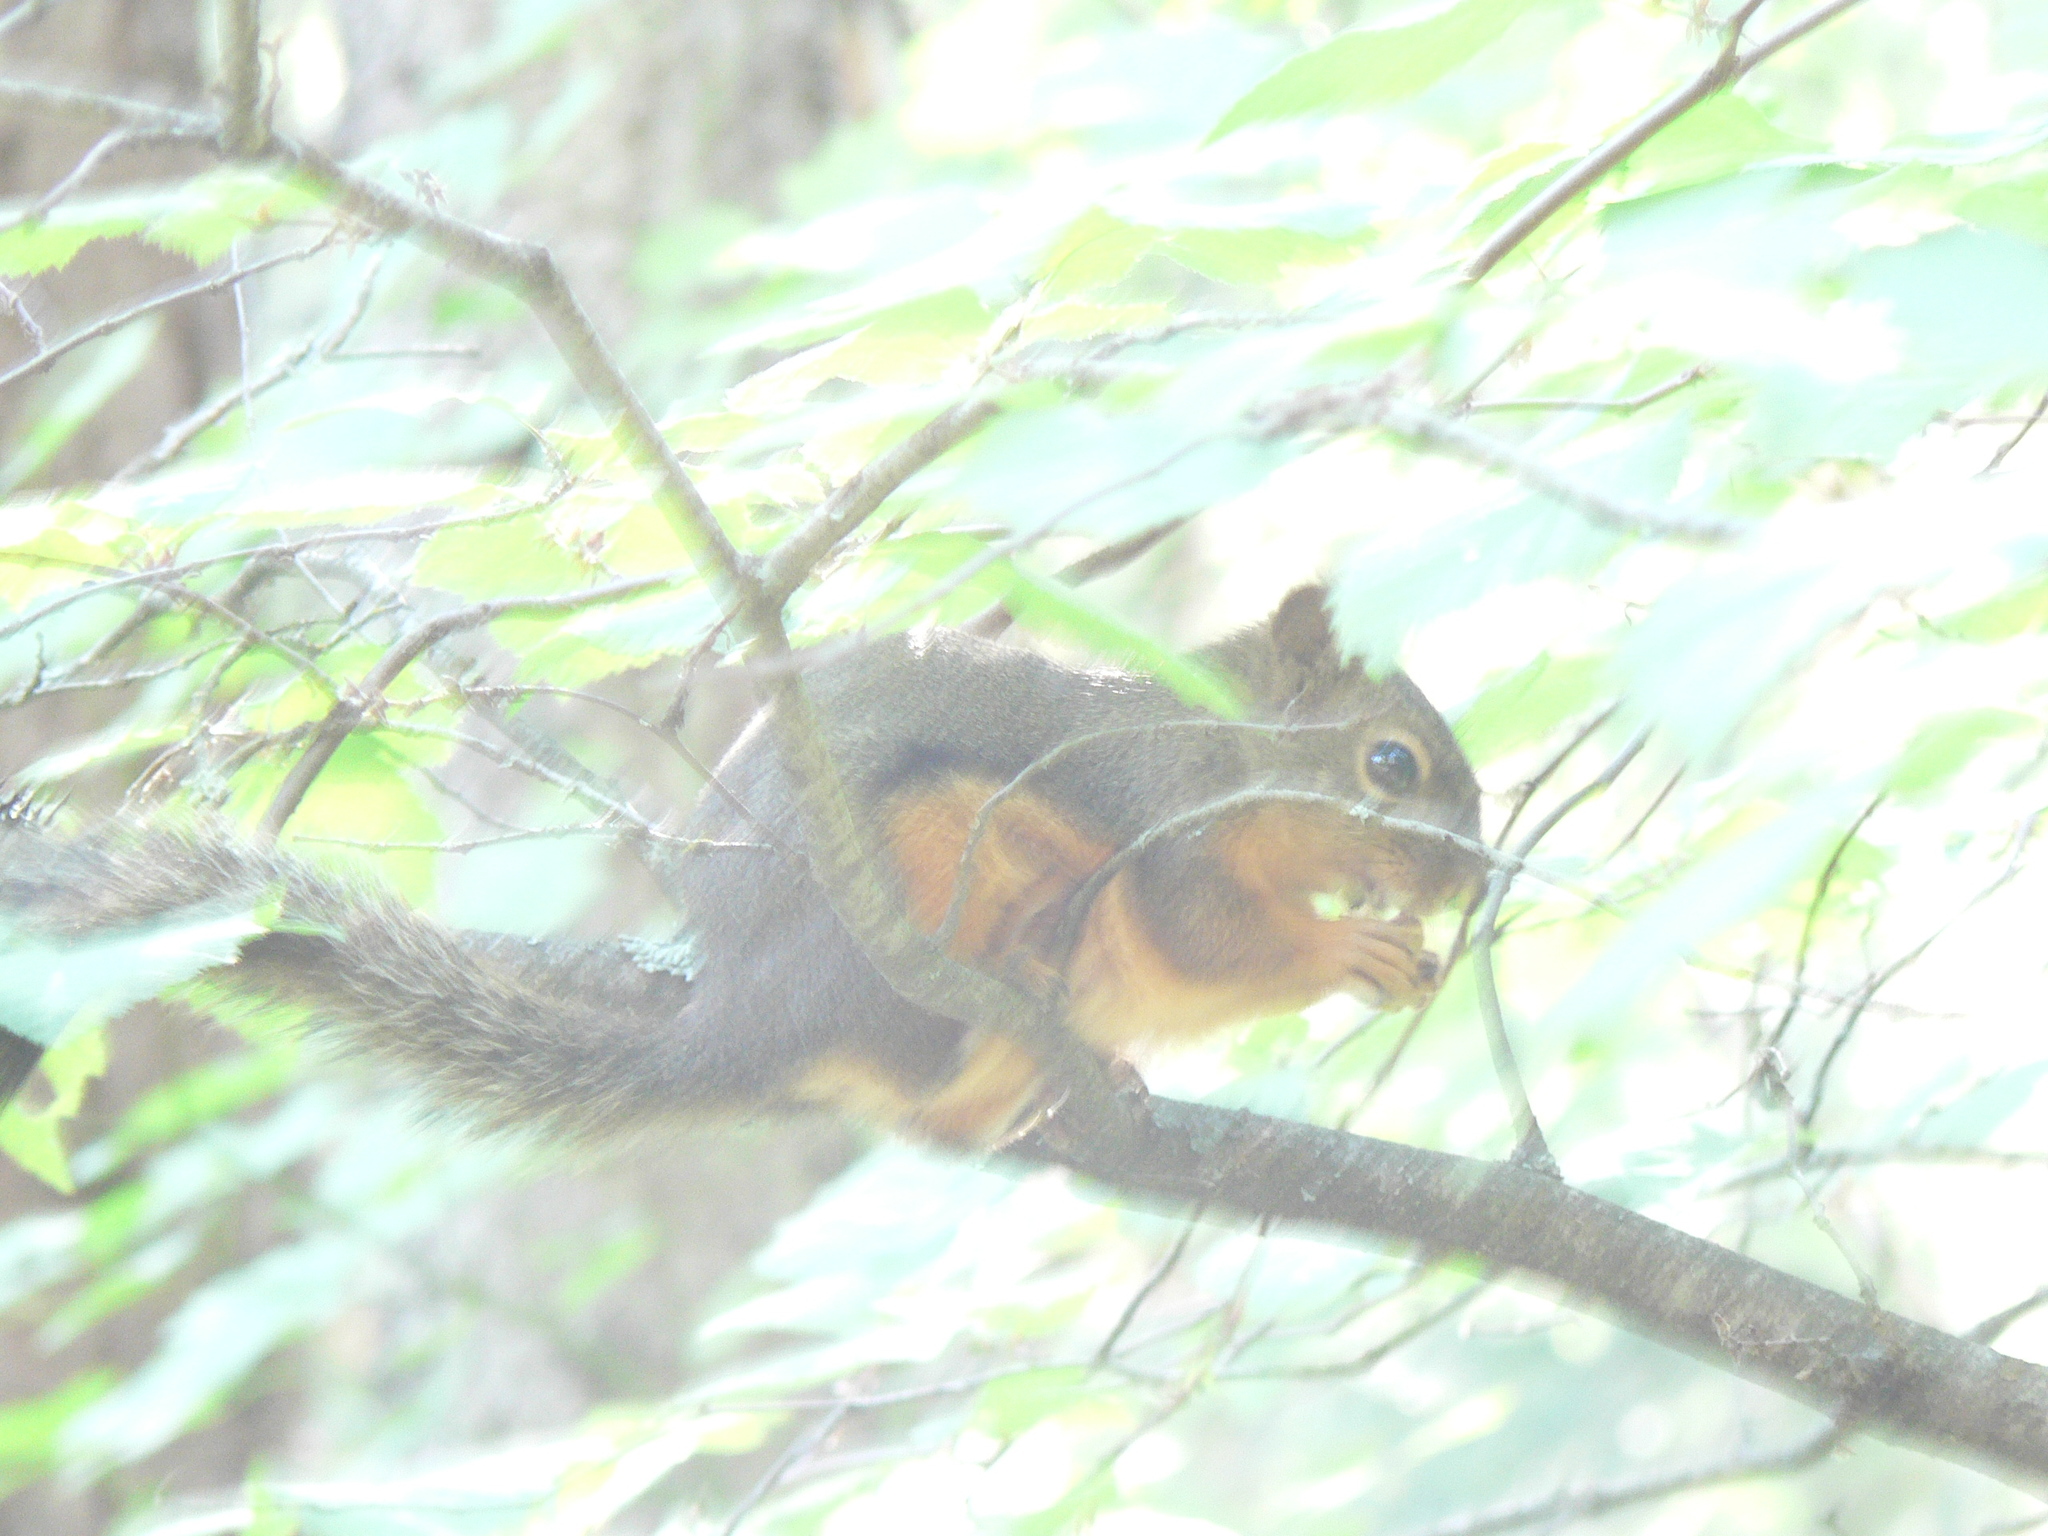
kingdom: Animalia
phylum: Chordata
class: Mammalia
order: Rodentia
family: Sciuridae
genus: Tamiasciurus
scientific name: Tamiasciurus douglasii
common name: Douglas's squirrel
